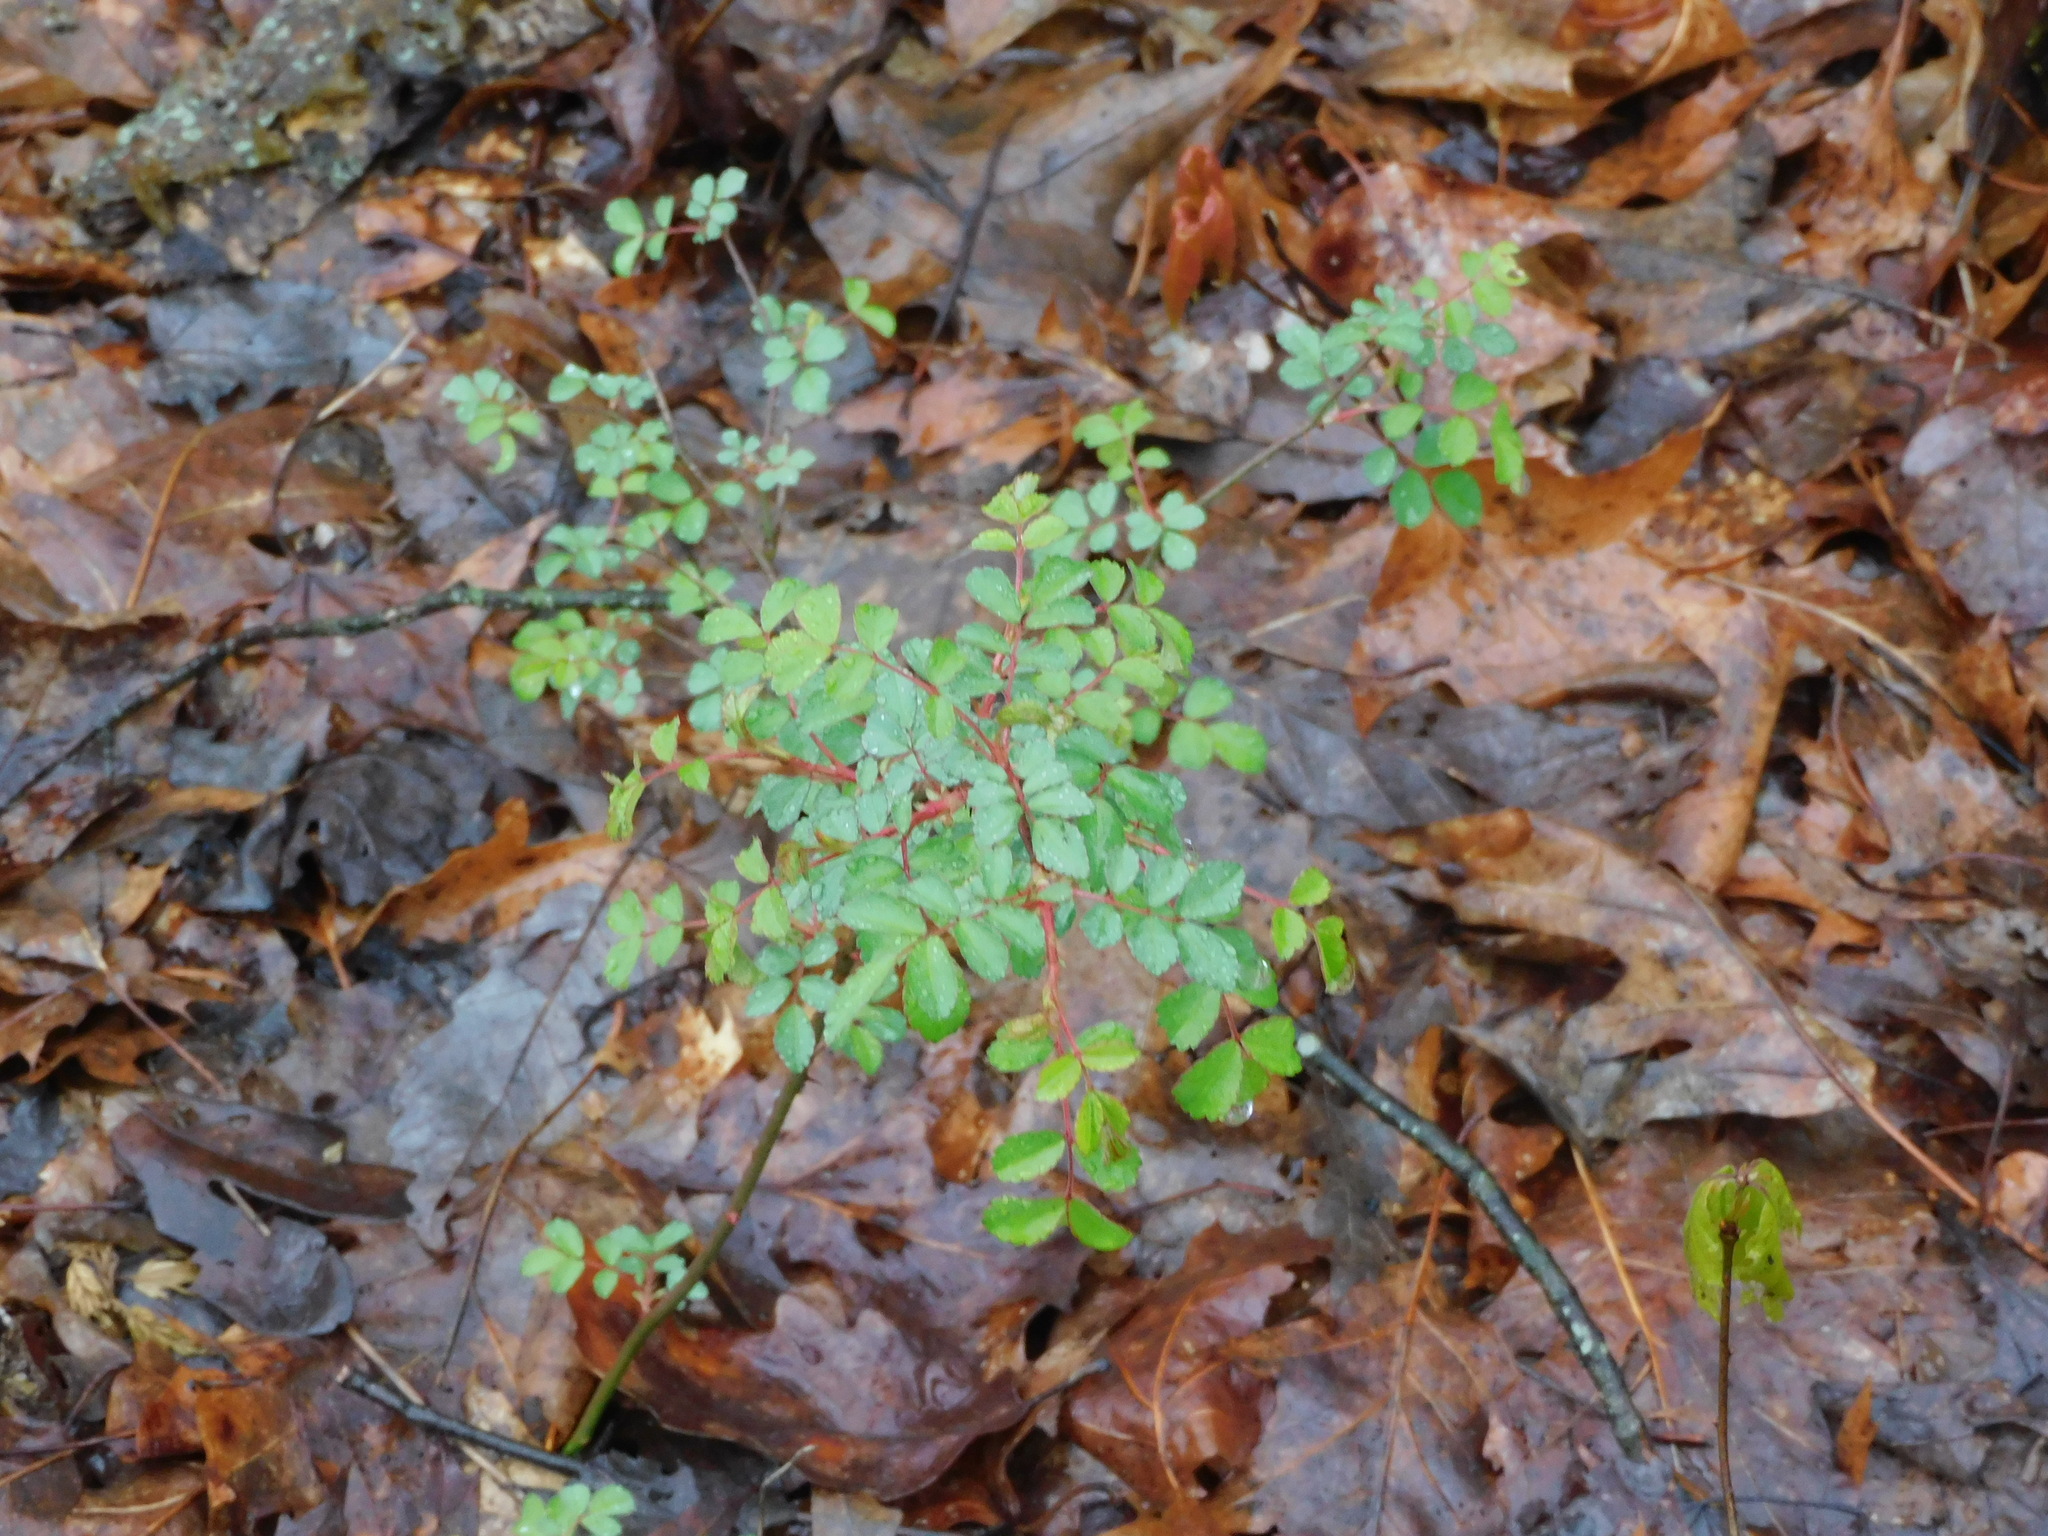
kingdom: Plantae
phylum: Tracheophyta
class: Magnoliopsida
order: Rosales
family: Rosaceae
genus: Rosa
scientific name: Rosa multiflora
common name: Multiflora rose
